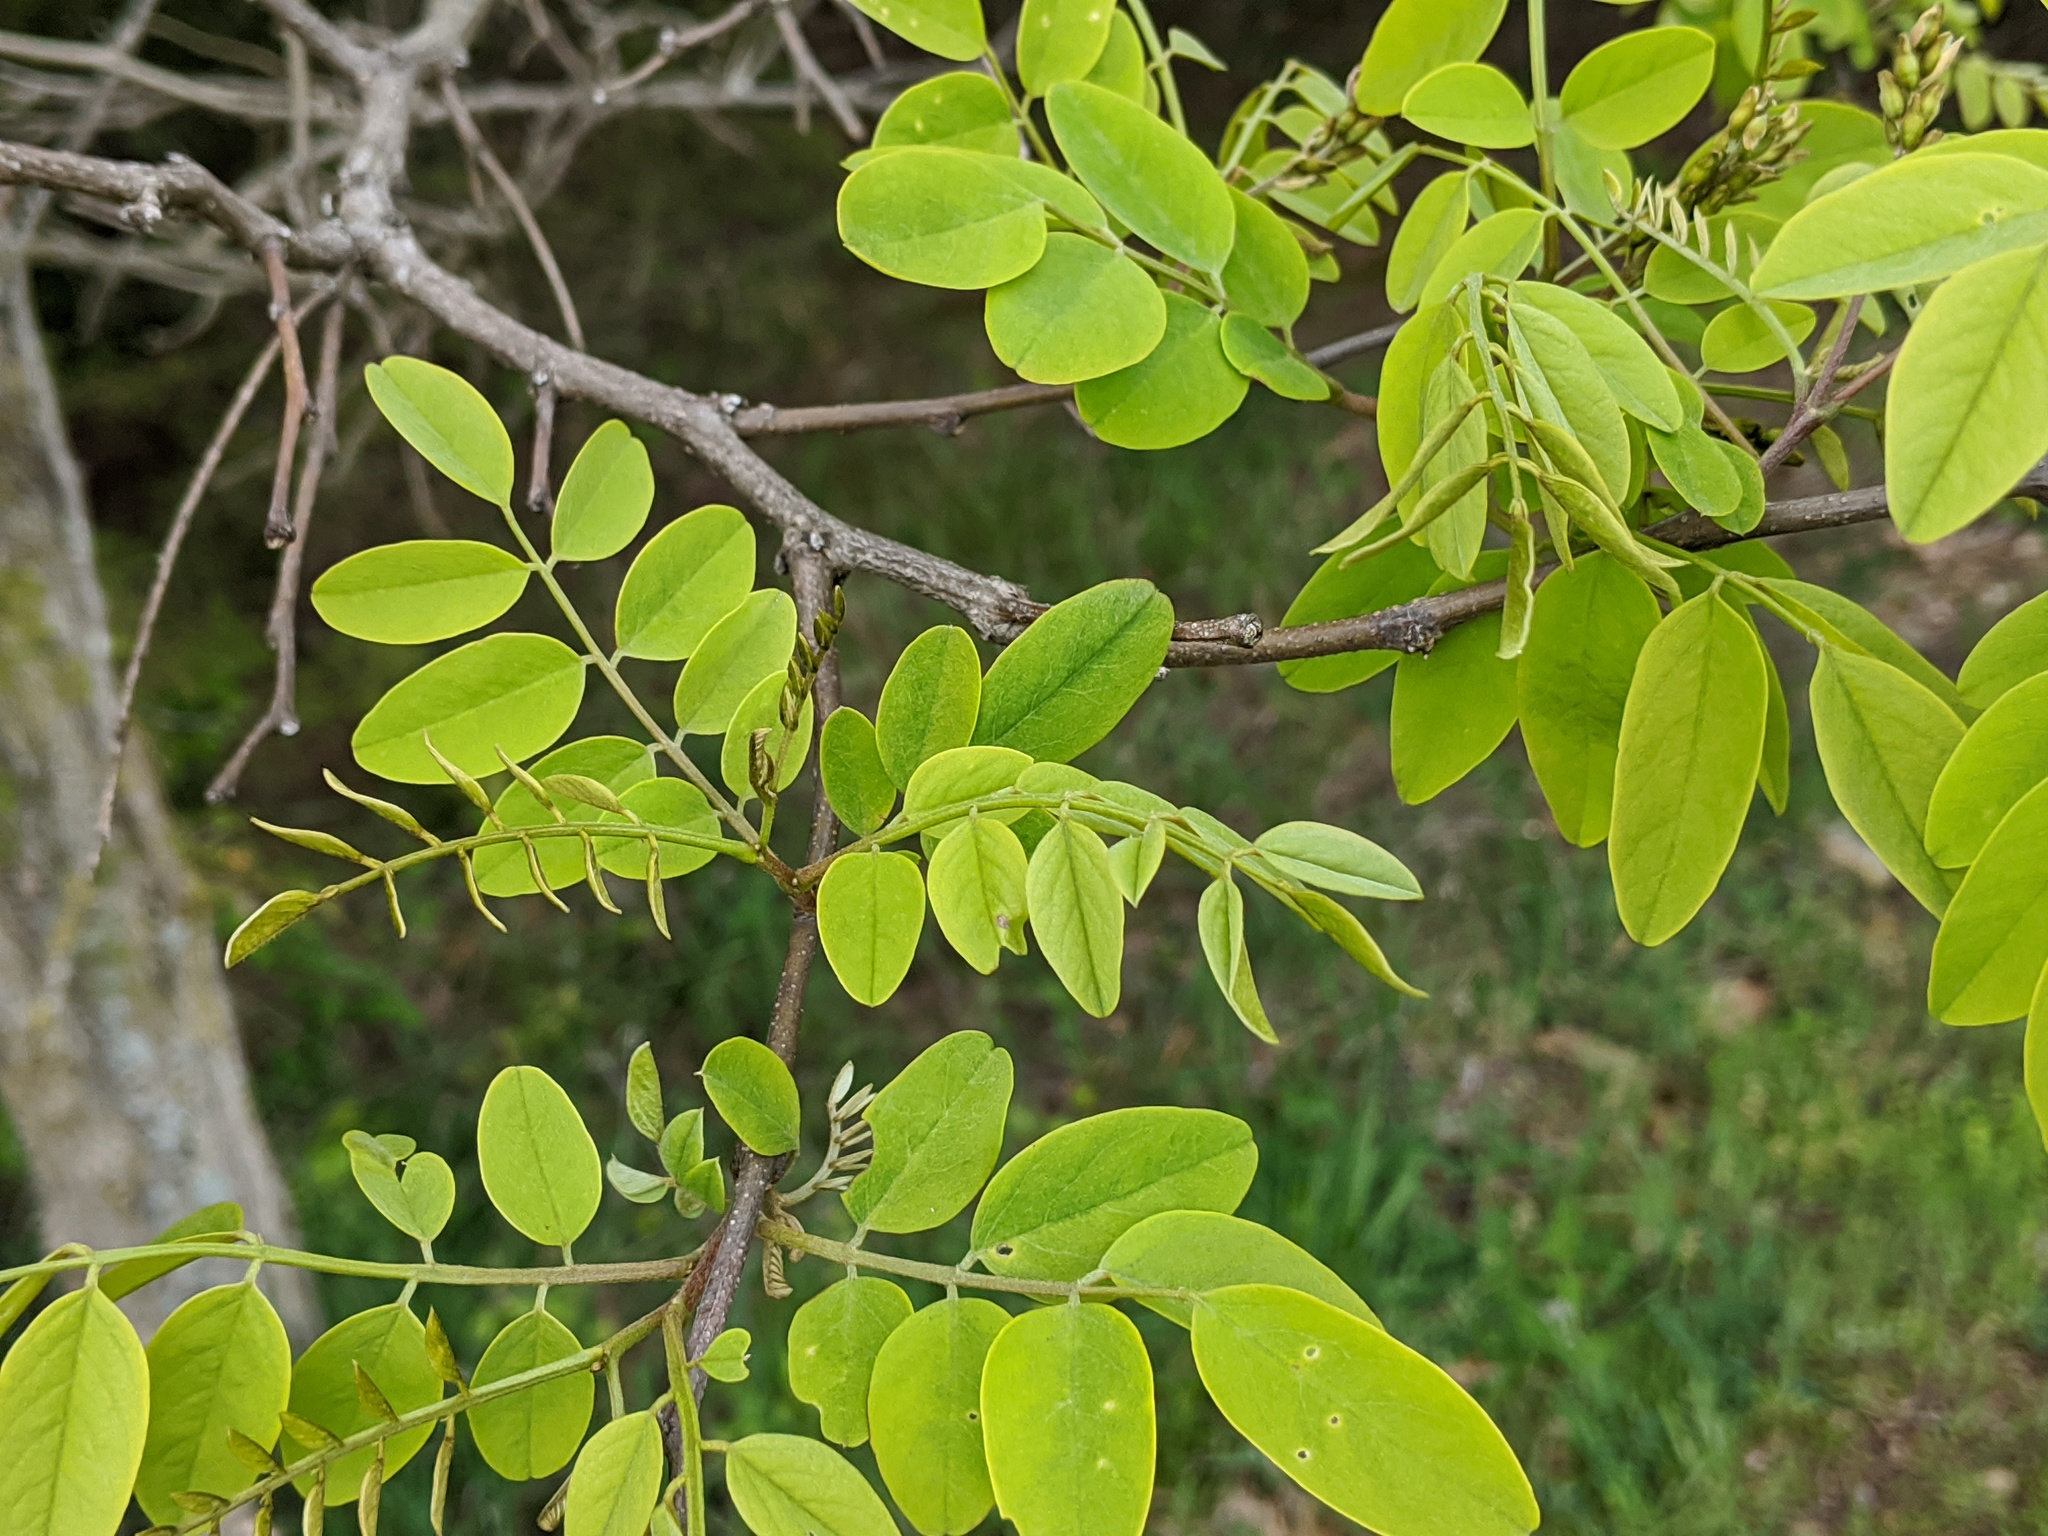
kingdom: Plantae
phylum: Tracheophyta
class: Magnoliopsida
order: Fabales
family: Fabaceae
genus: Robinia
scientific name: Robinia pseudoacacia
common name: Black locust
